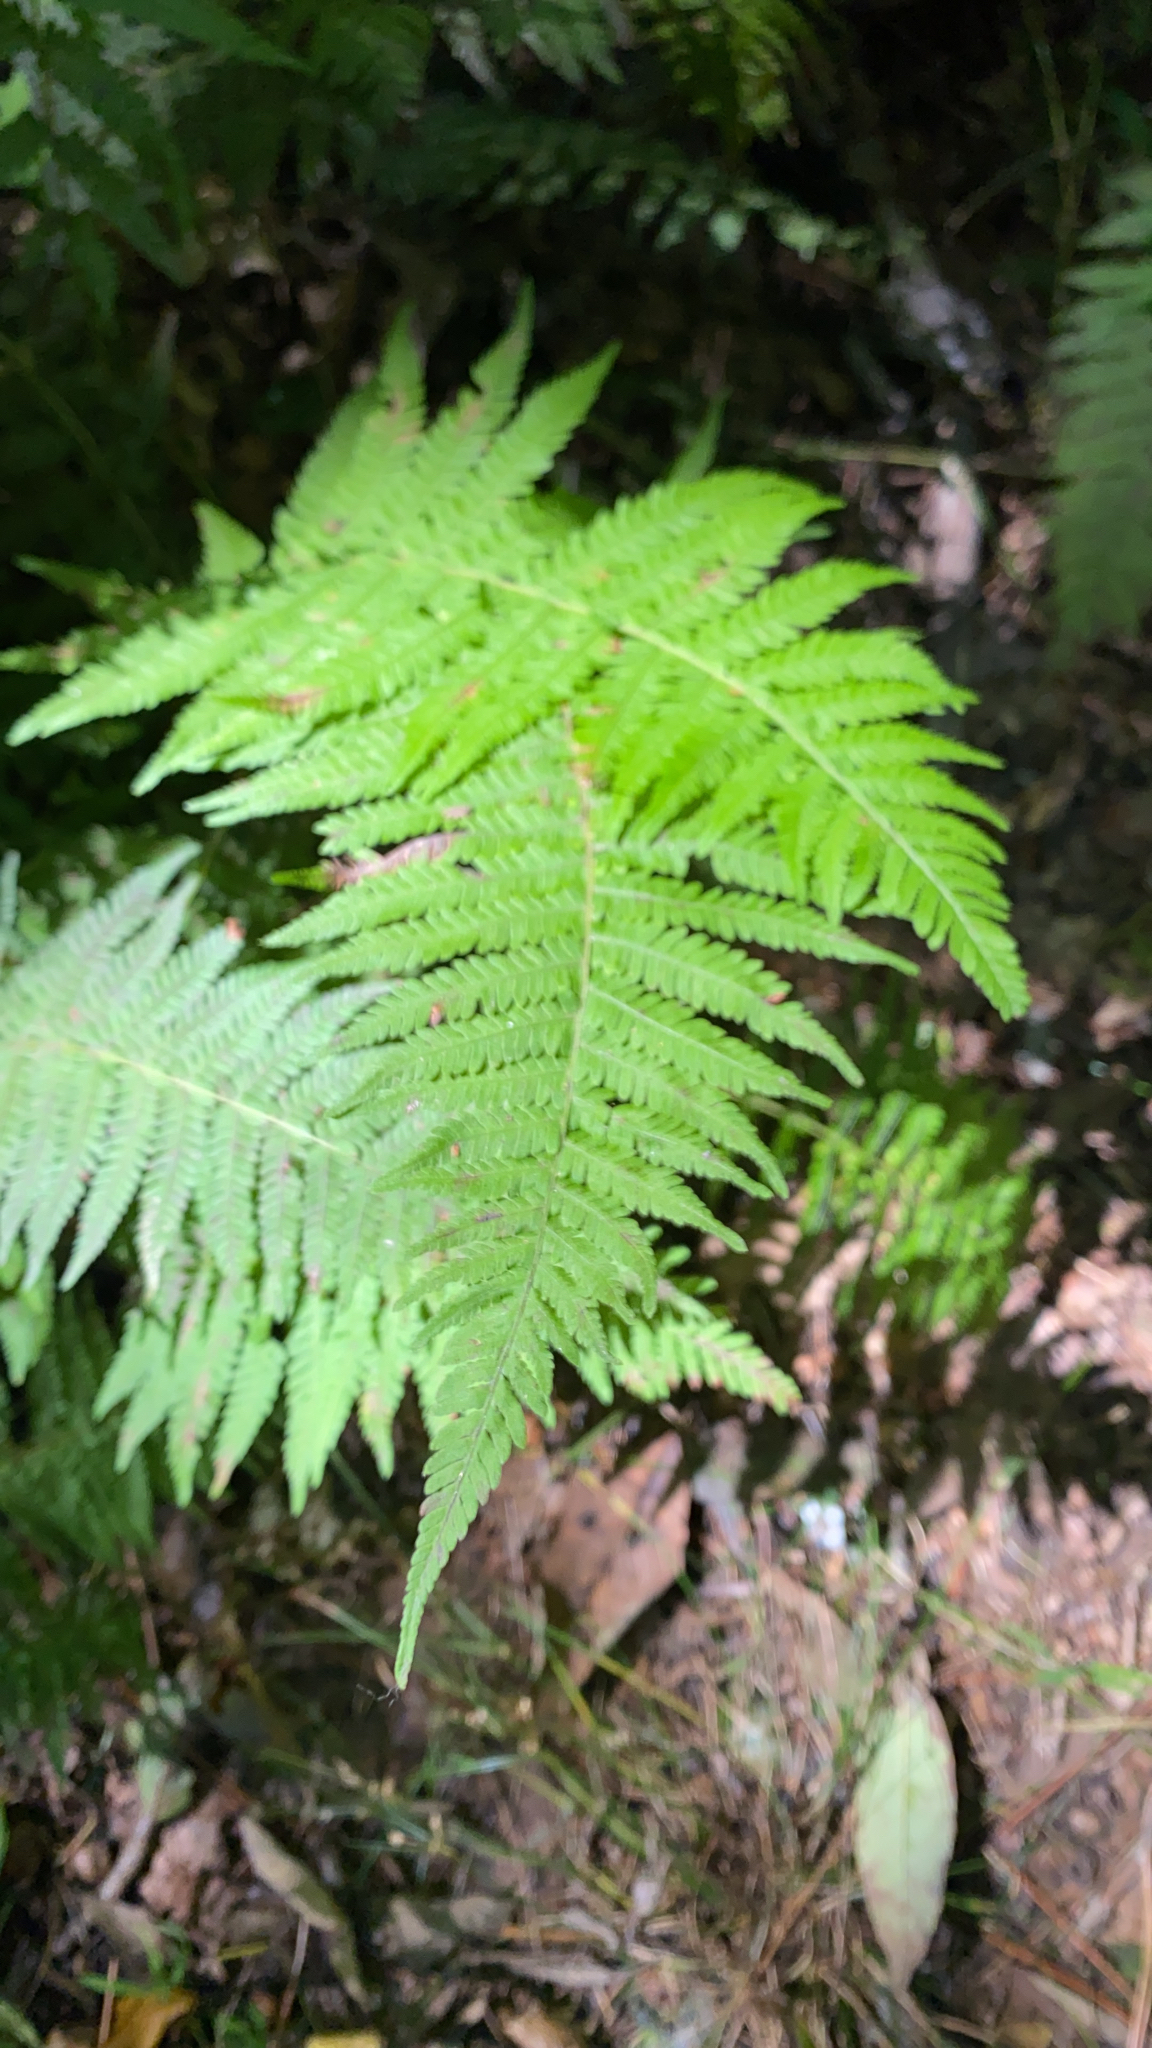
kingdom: Plantae
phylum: Tracheophyta
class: Polypodiopsida
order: Polypodiales
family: Thelypteridaceae
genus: Amauropelta
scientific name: Amauropelta noveboracensis
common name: New york fern
